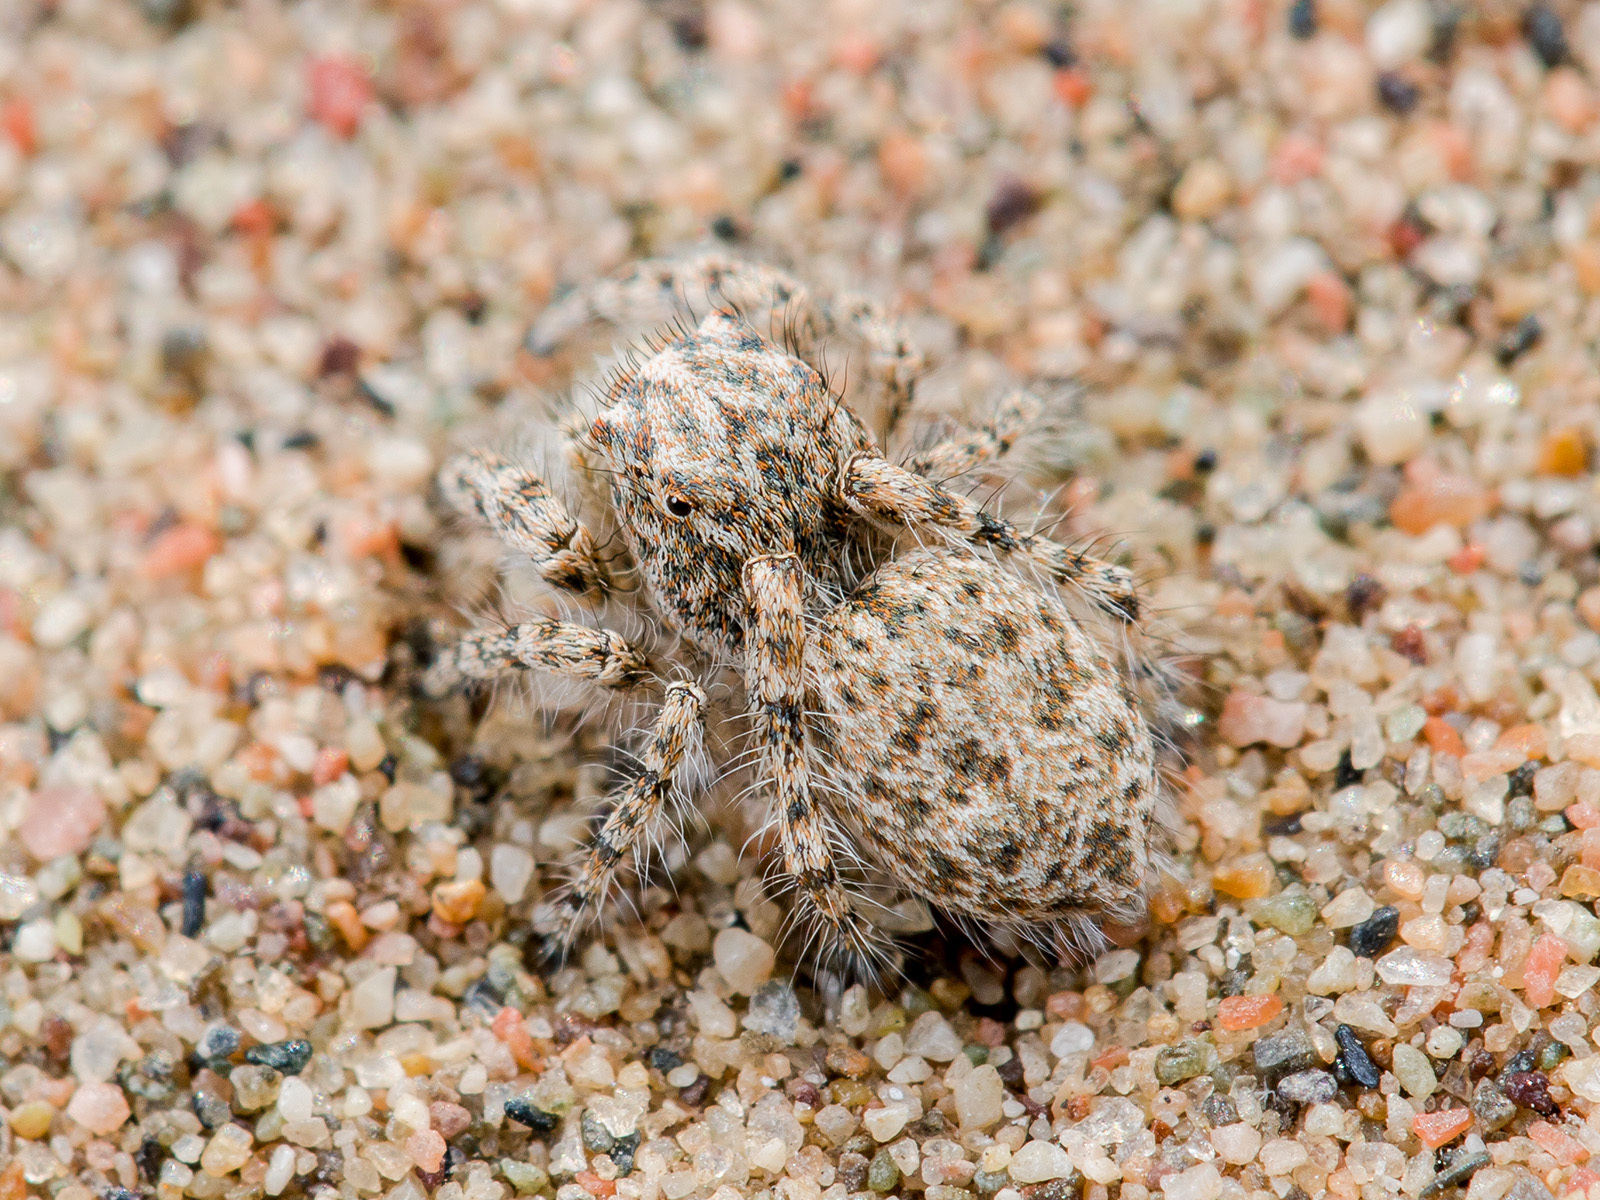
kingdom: Animalia
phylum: Arthropoda
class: Arachnida
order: Araneae
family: Salticidae
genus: Yllenus
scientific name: Yllenus turkestanicus
